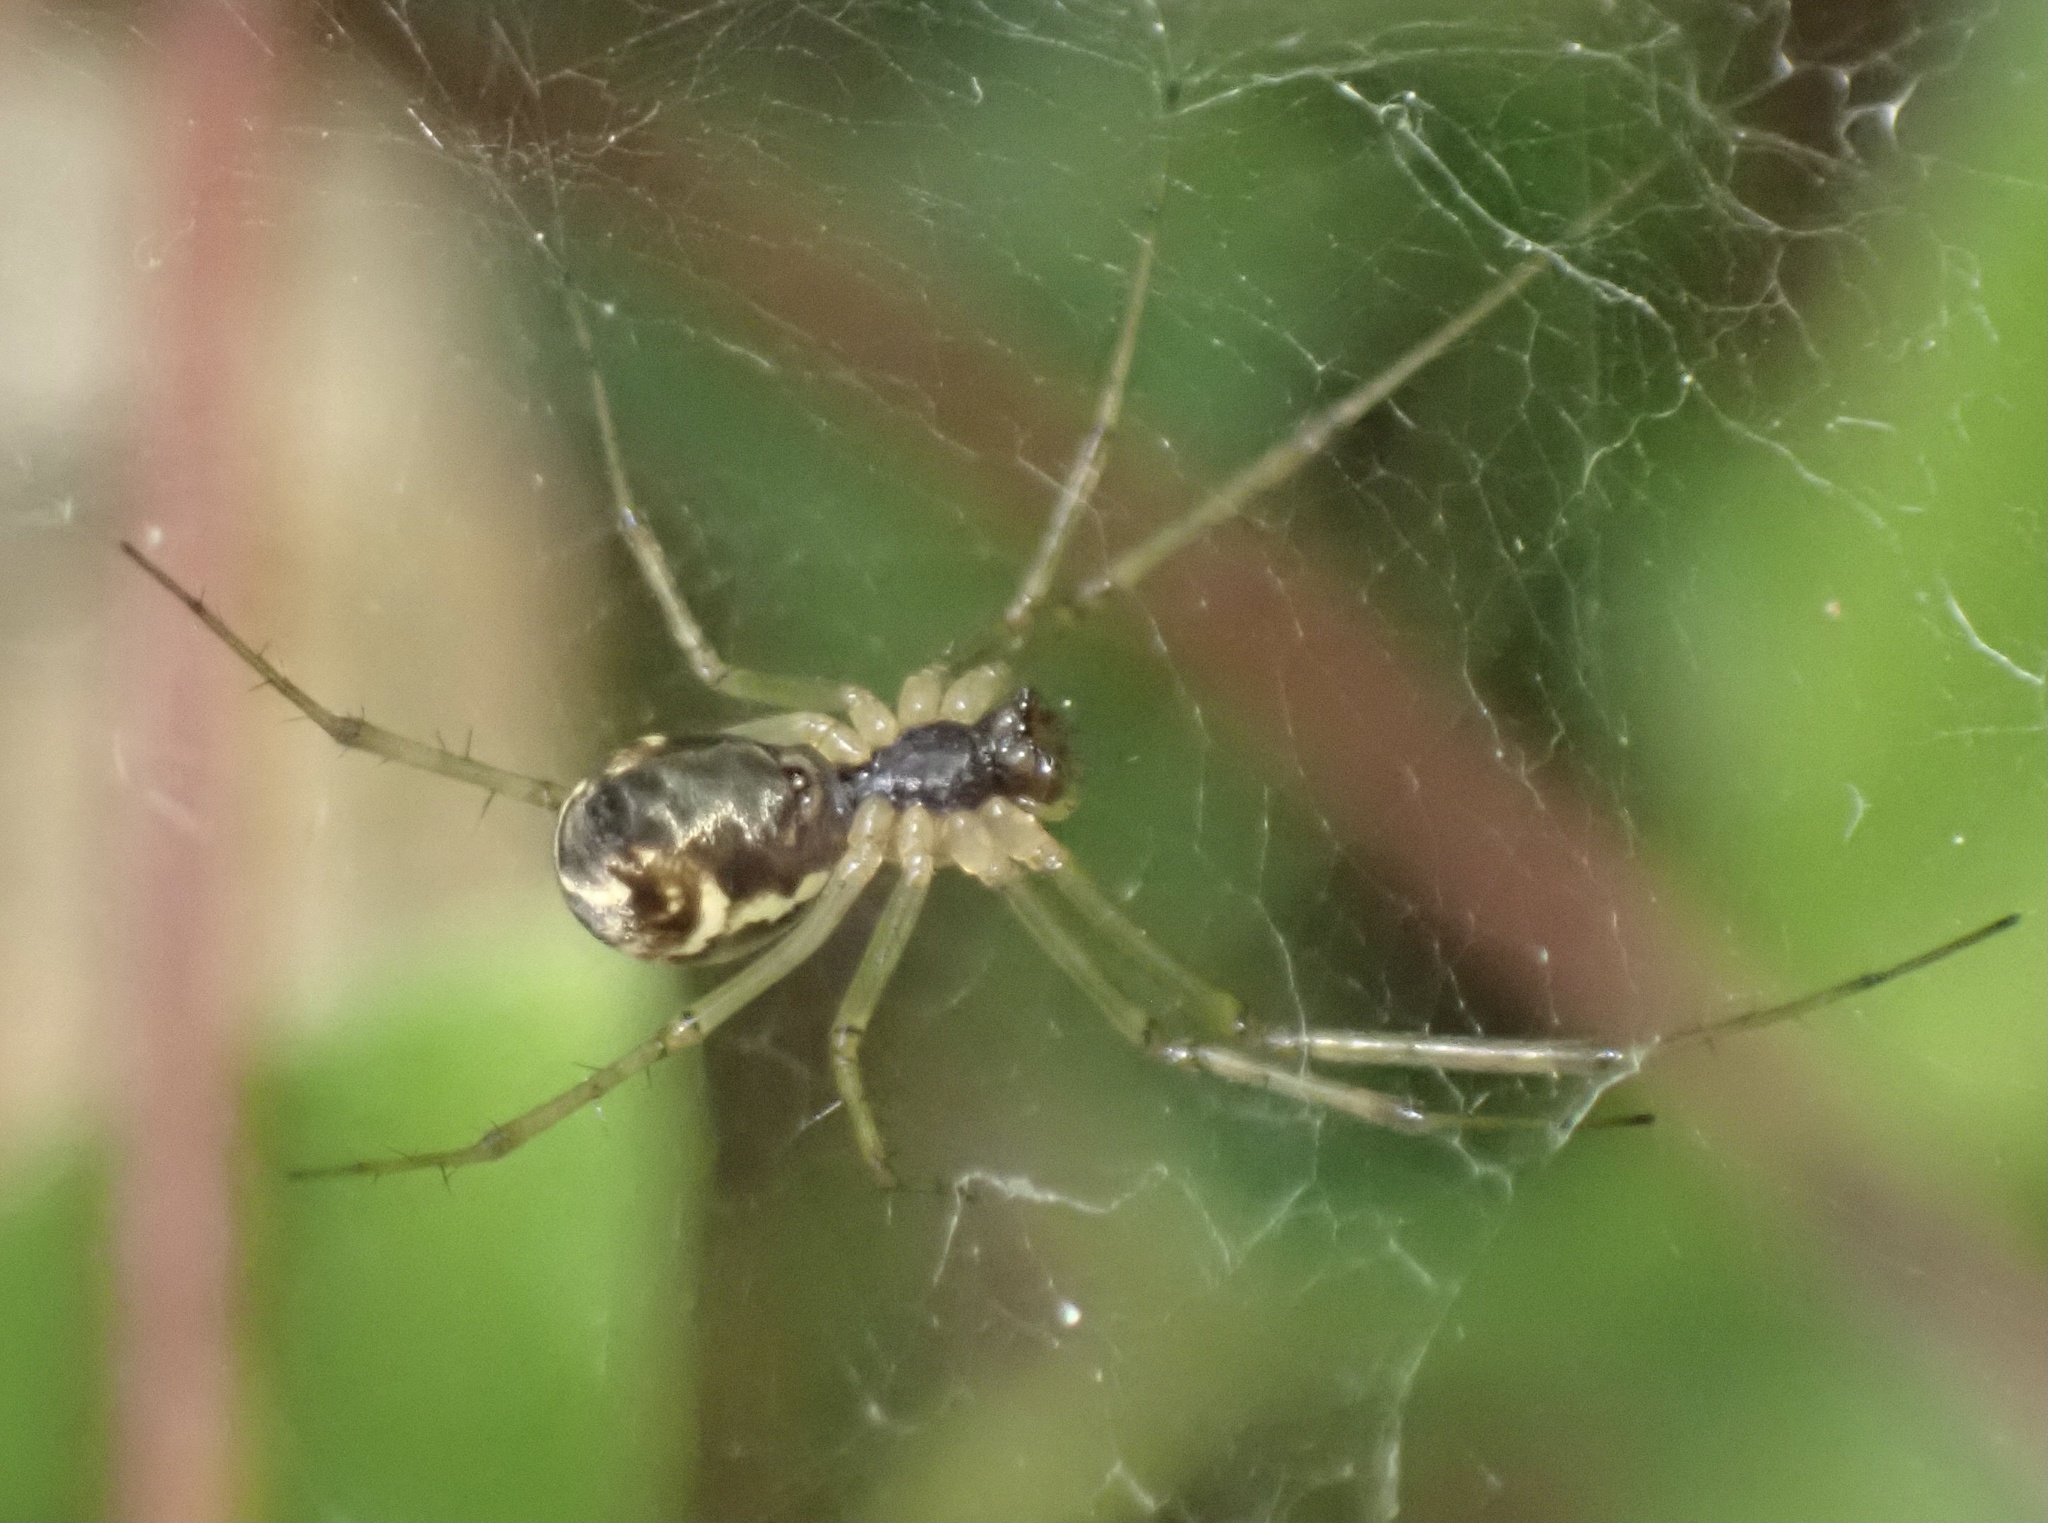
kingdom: Animalia
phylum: Arthropoda
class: Arachnida
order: Araneae
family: Linyphiidae
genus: Linyphia
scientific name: Linyphia triangularis
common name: Money spider
